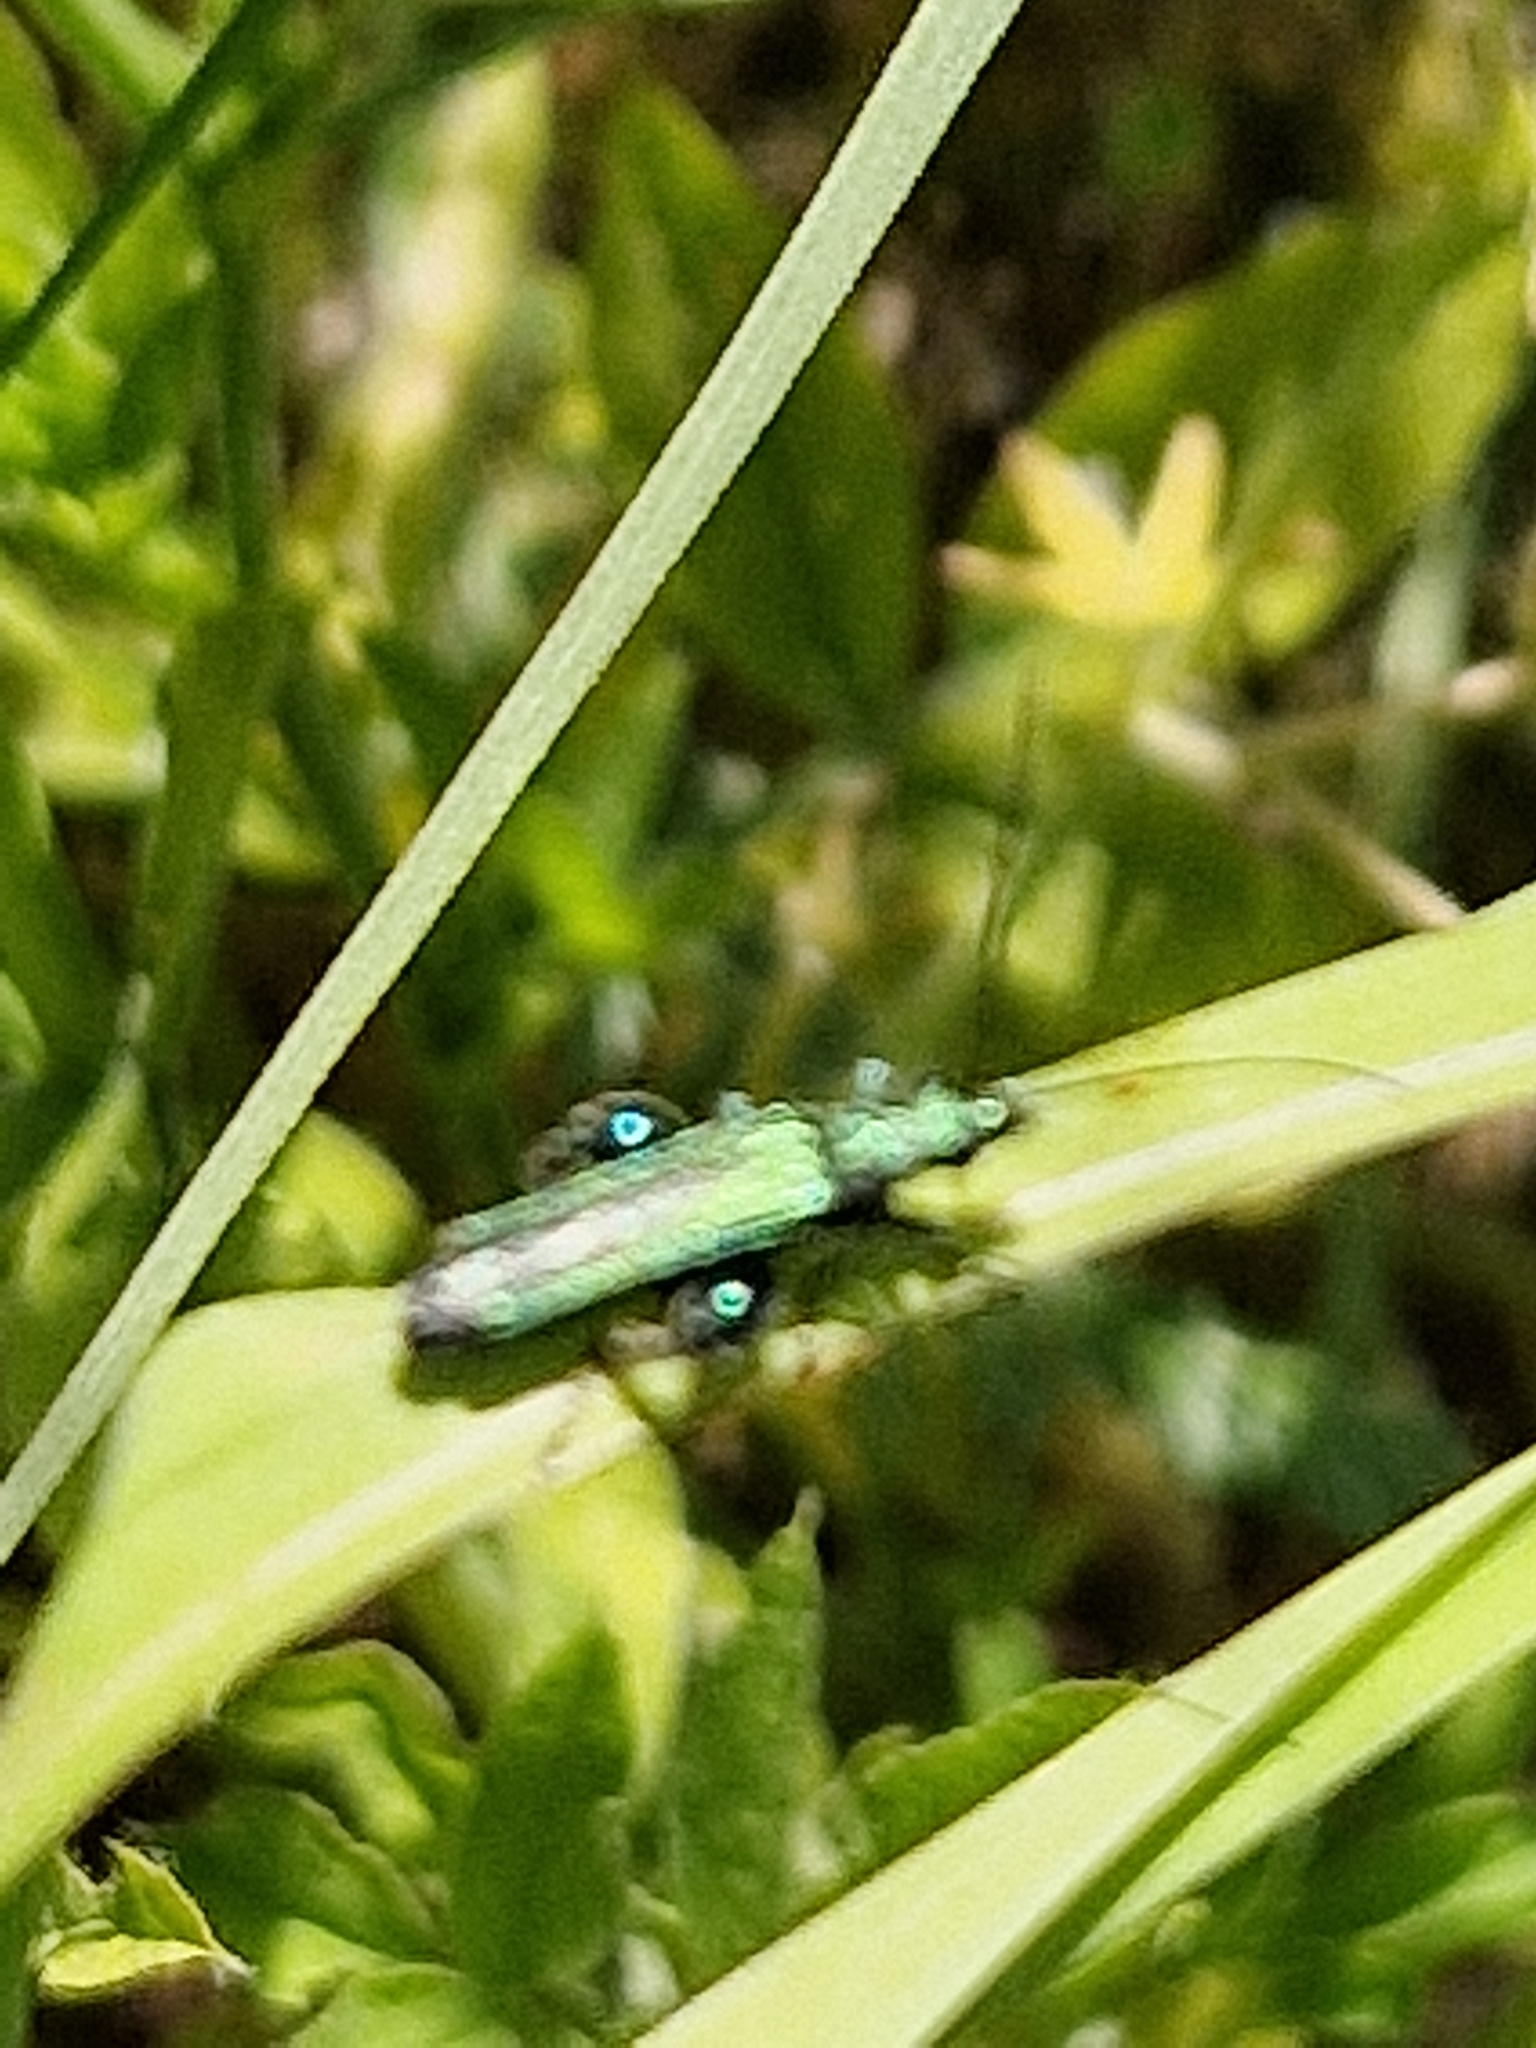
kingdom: Animalia
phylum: Arthropoda
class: Insecta
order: Coleoptera
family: Oedemeridae
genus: Oedemera
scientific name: Oedemera nobilis
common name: Swollen-thighed beetle
